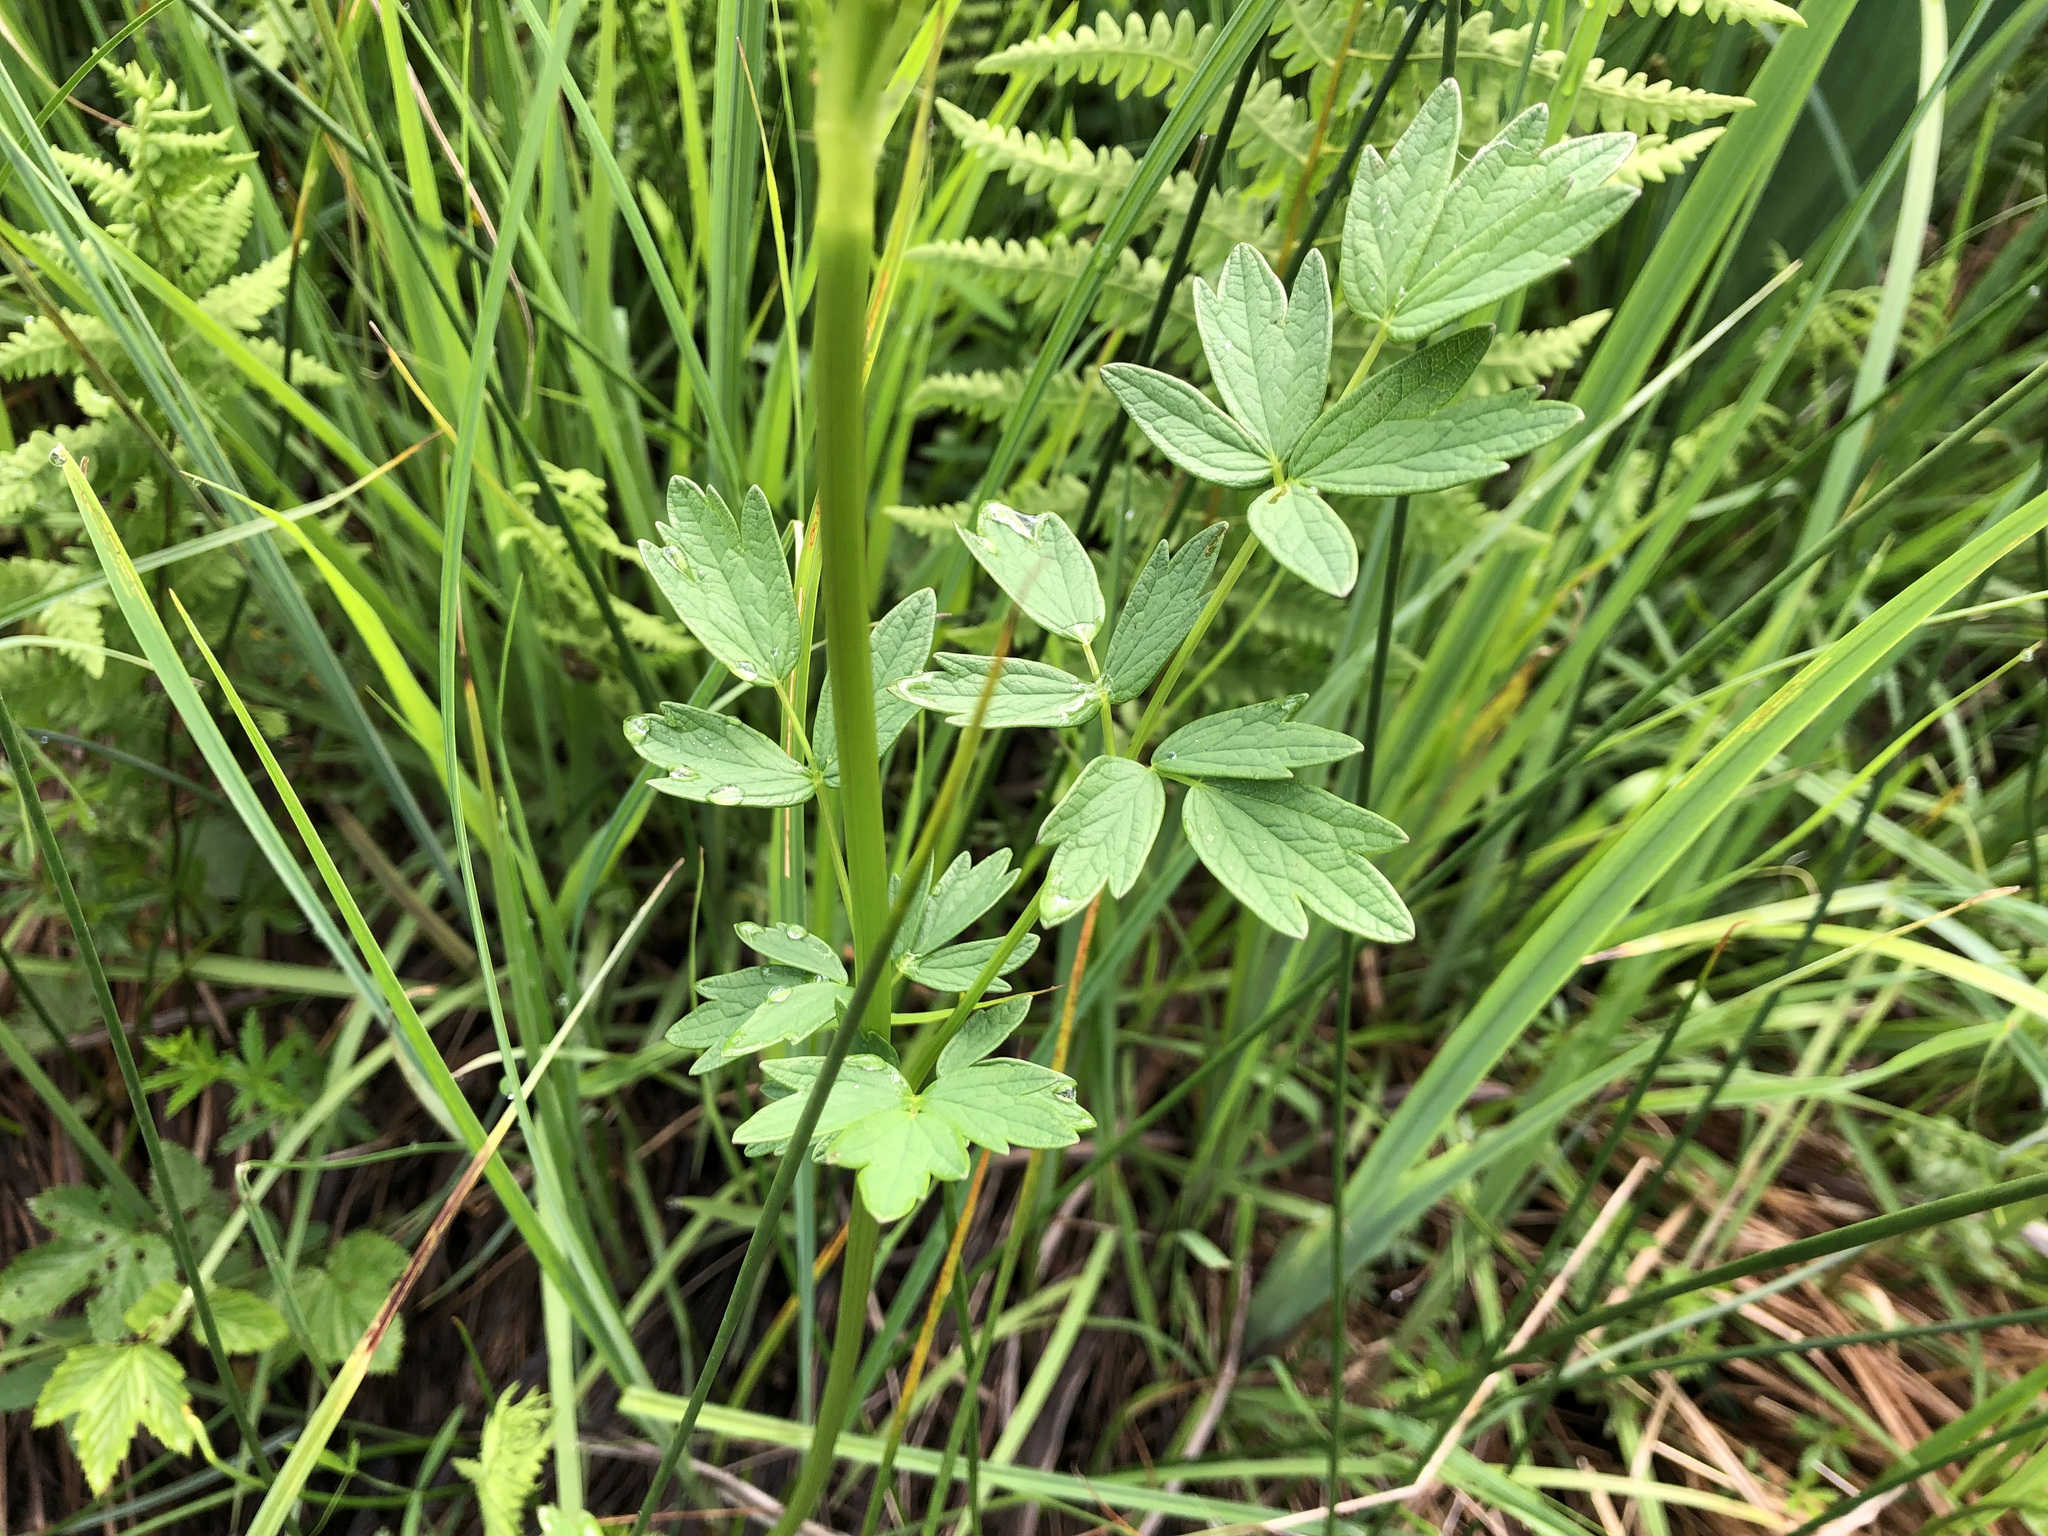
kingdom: Plantae
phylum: Tracheophyta
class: Magnoliopsida
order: Ranunculales
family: Ranunculaceae
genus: Thalictrum
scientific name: Thalictrum flavum
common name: Common meadow-rue
